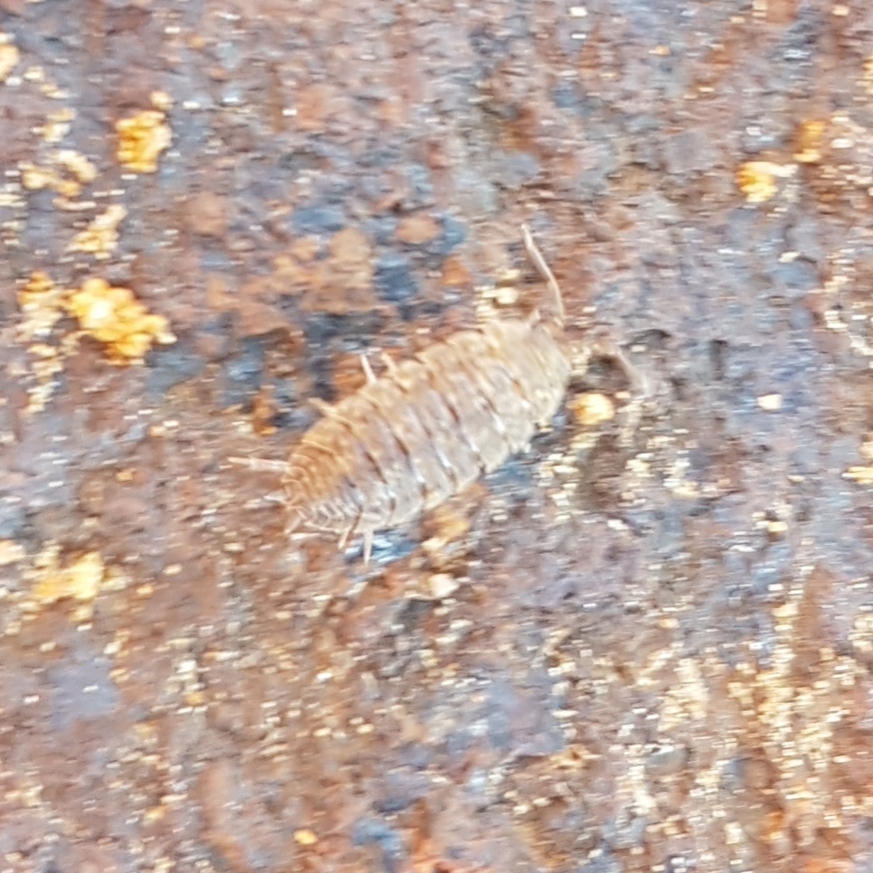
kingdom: Animalia
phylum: Arthropoda
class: Malacostraca
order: Isopoda
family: Porcellionidae
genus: Porcellio
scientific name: Porcellio scaber
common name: Common rough woodlouse
